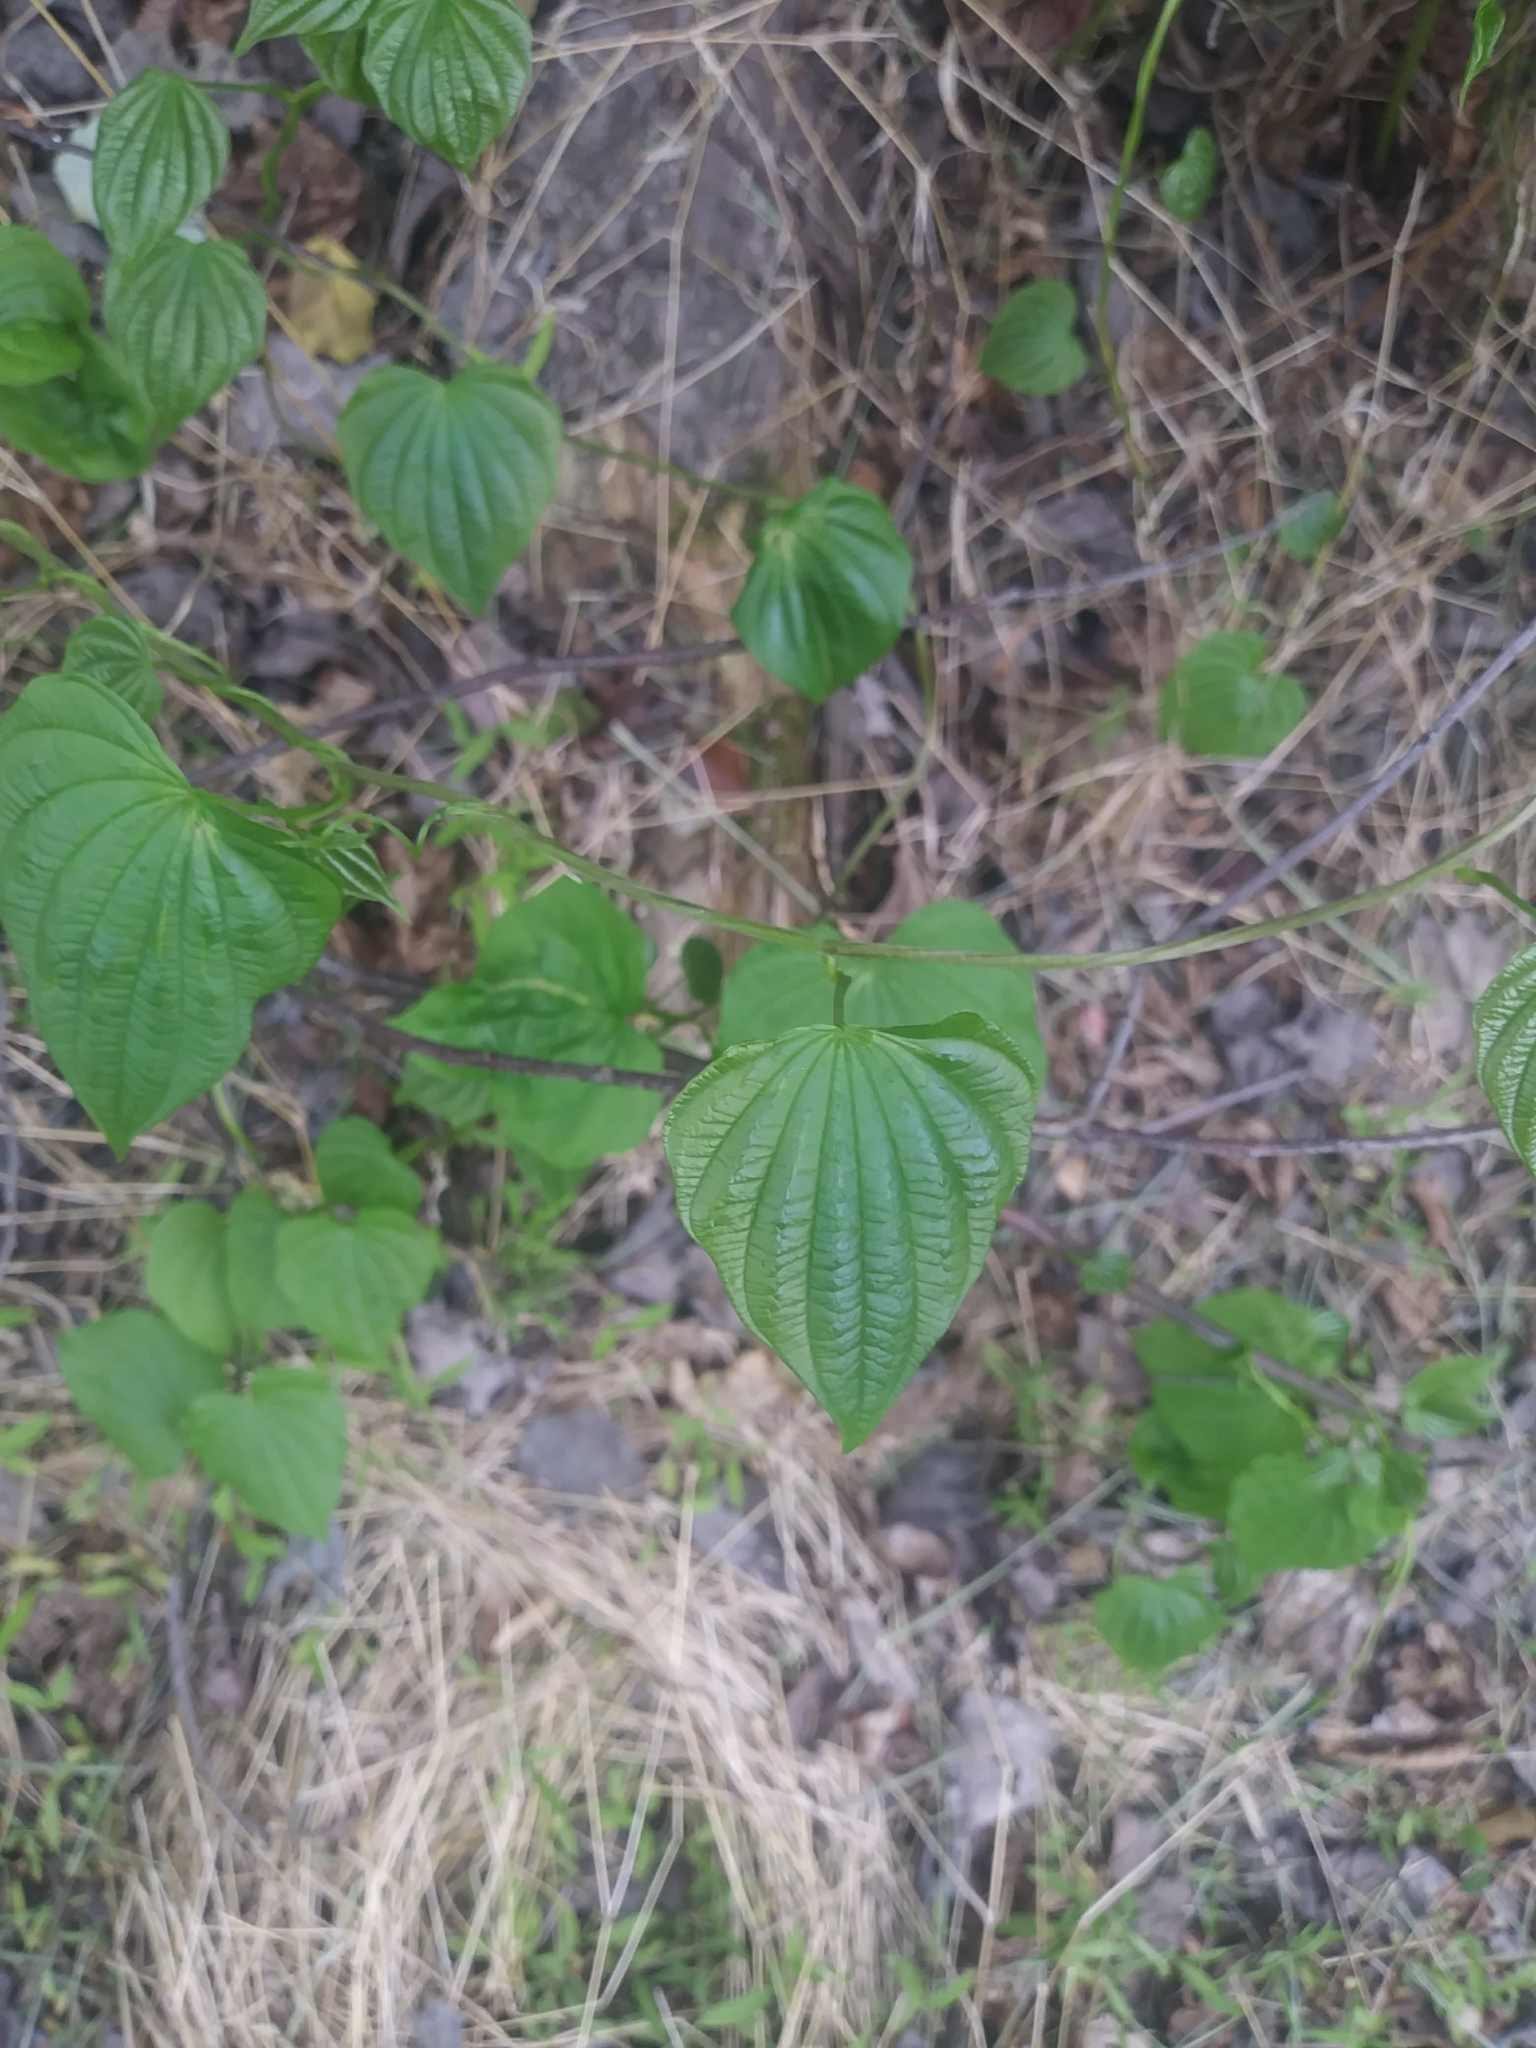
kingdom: Plantae
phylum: Tracheophyta
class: Liliopsida
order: Dioscoreales
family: Dioscoreaceae
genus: Dioscorea
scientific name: Dioscorea villosa
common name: Wild yam
